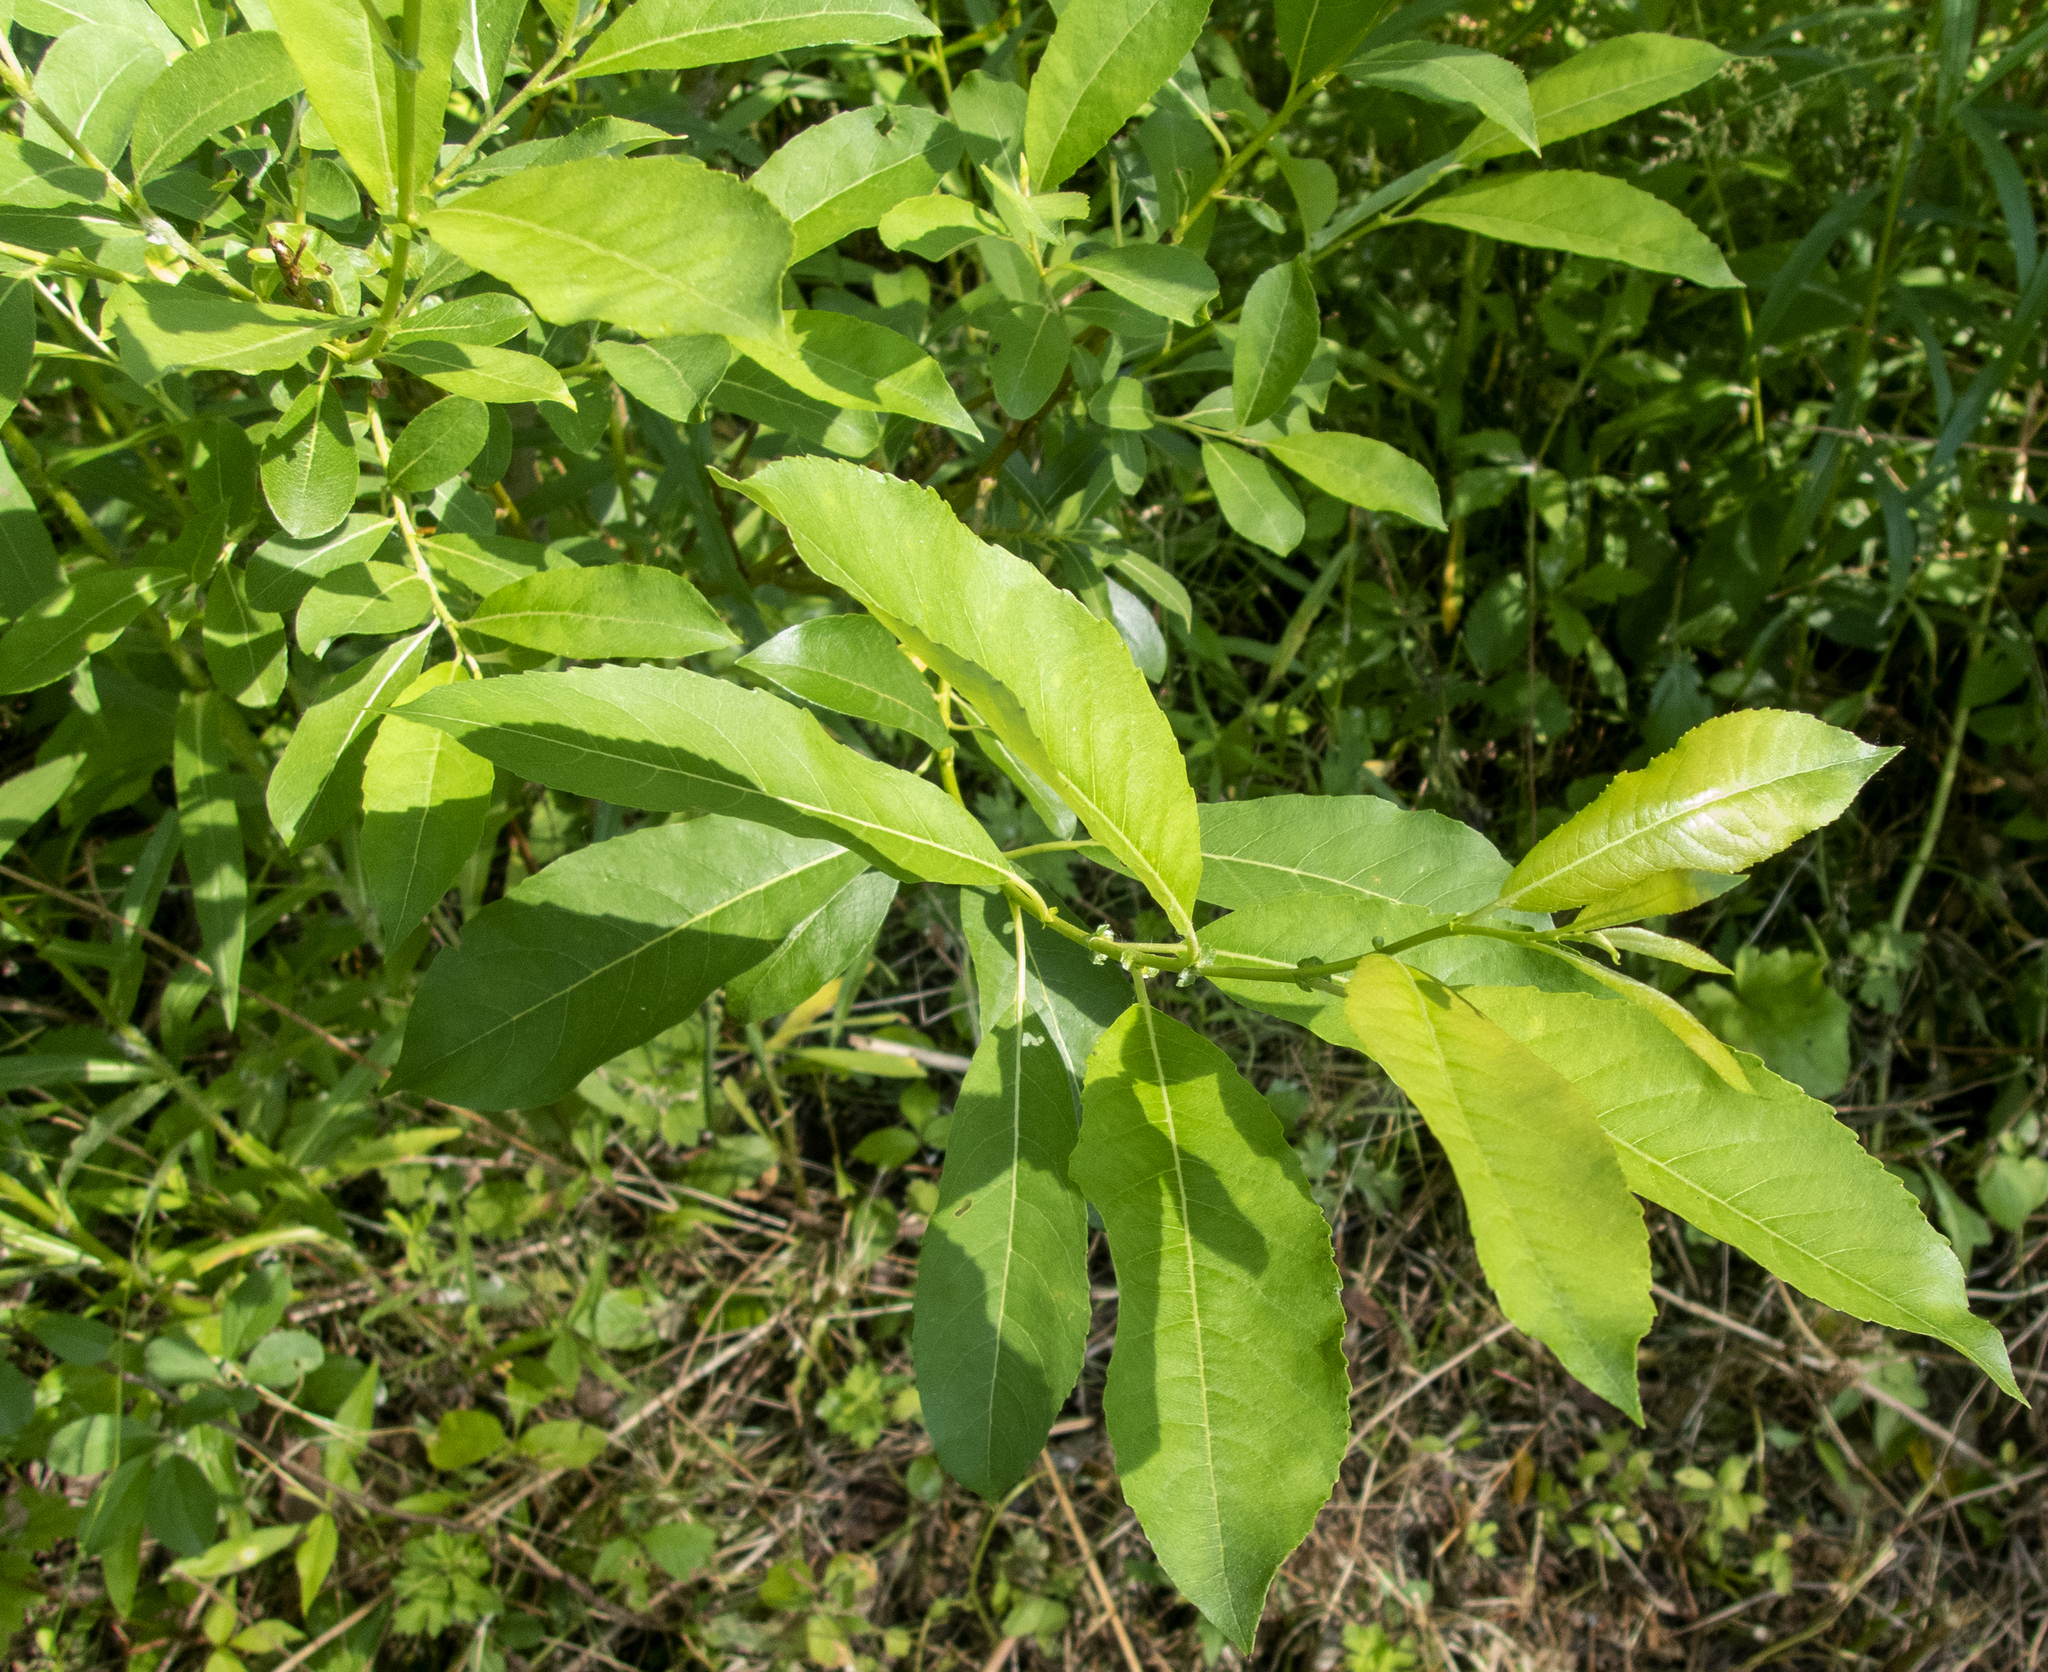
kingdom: Plantae
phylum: Tracheophyta
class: Magnoliopsida
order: Malpighiales
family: Salicaceae
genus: Salix
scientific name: Salix discolor
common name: Glaucous willow
